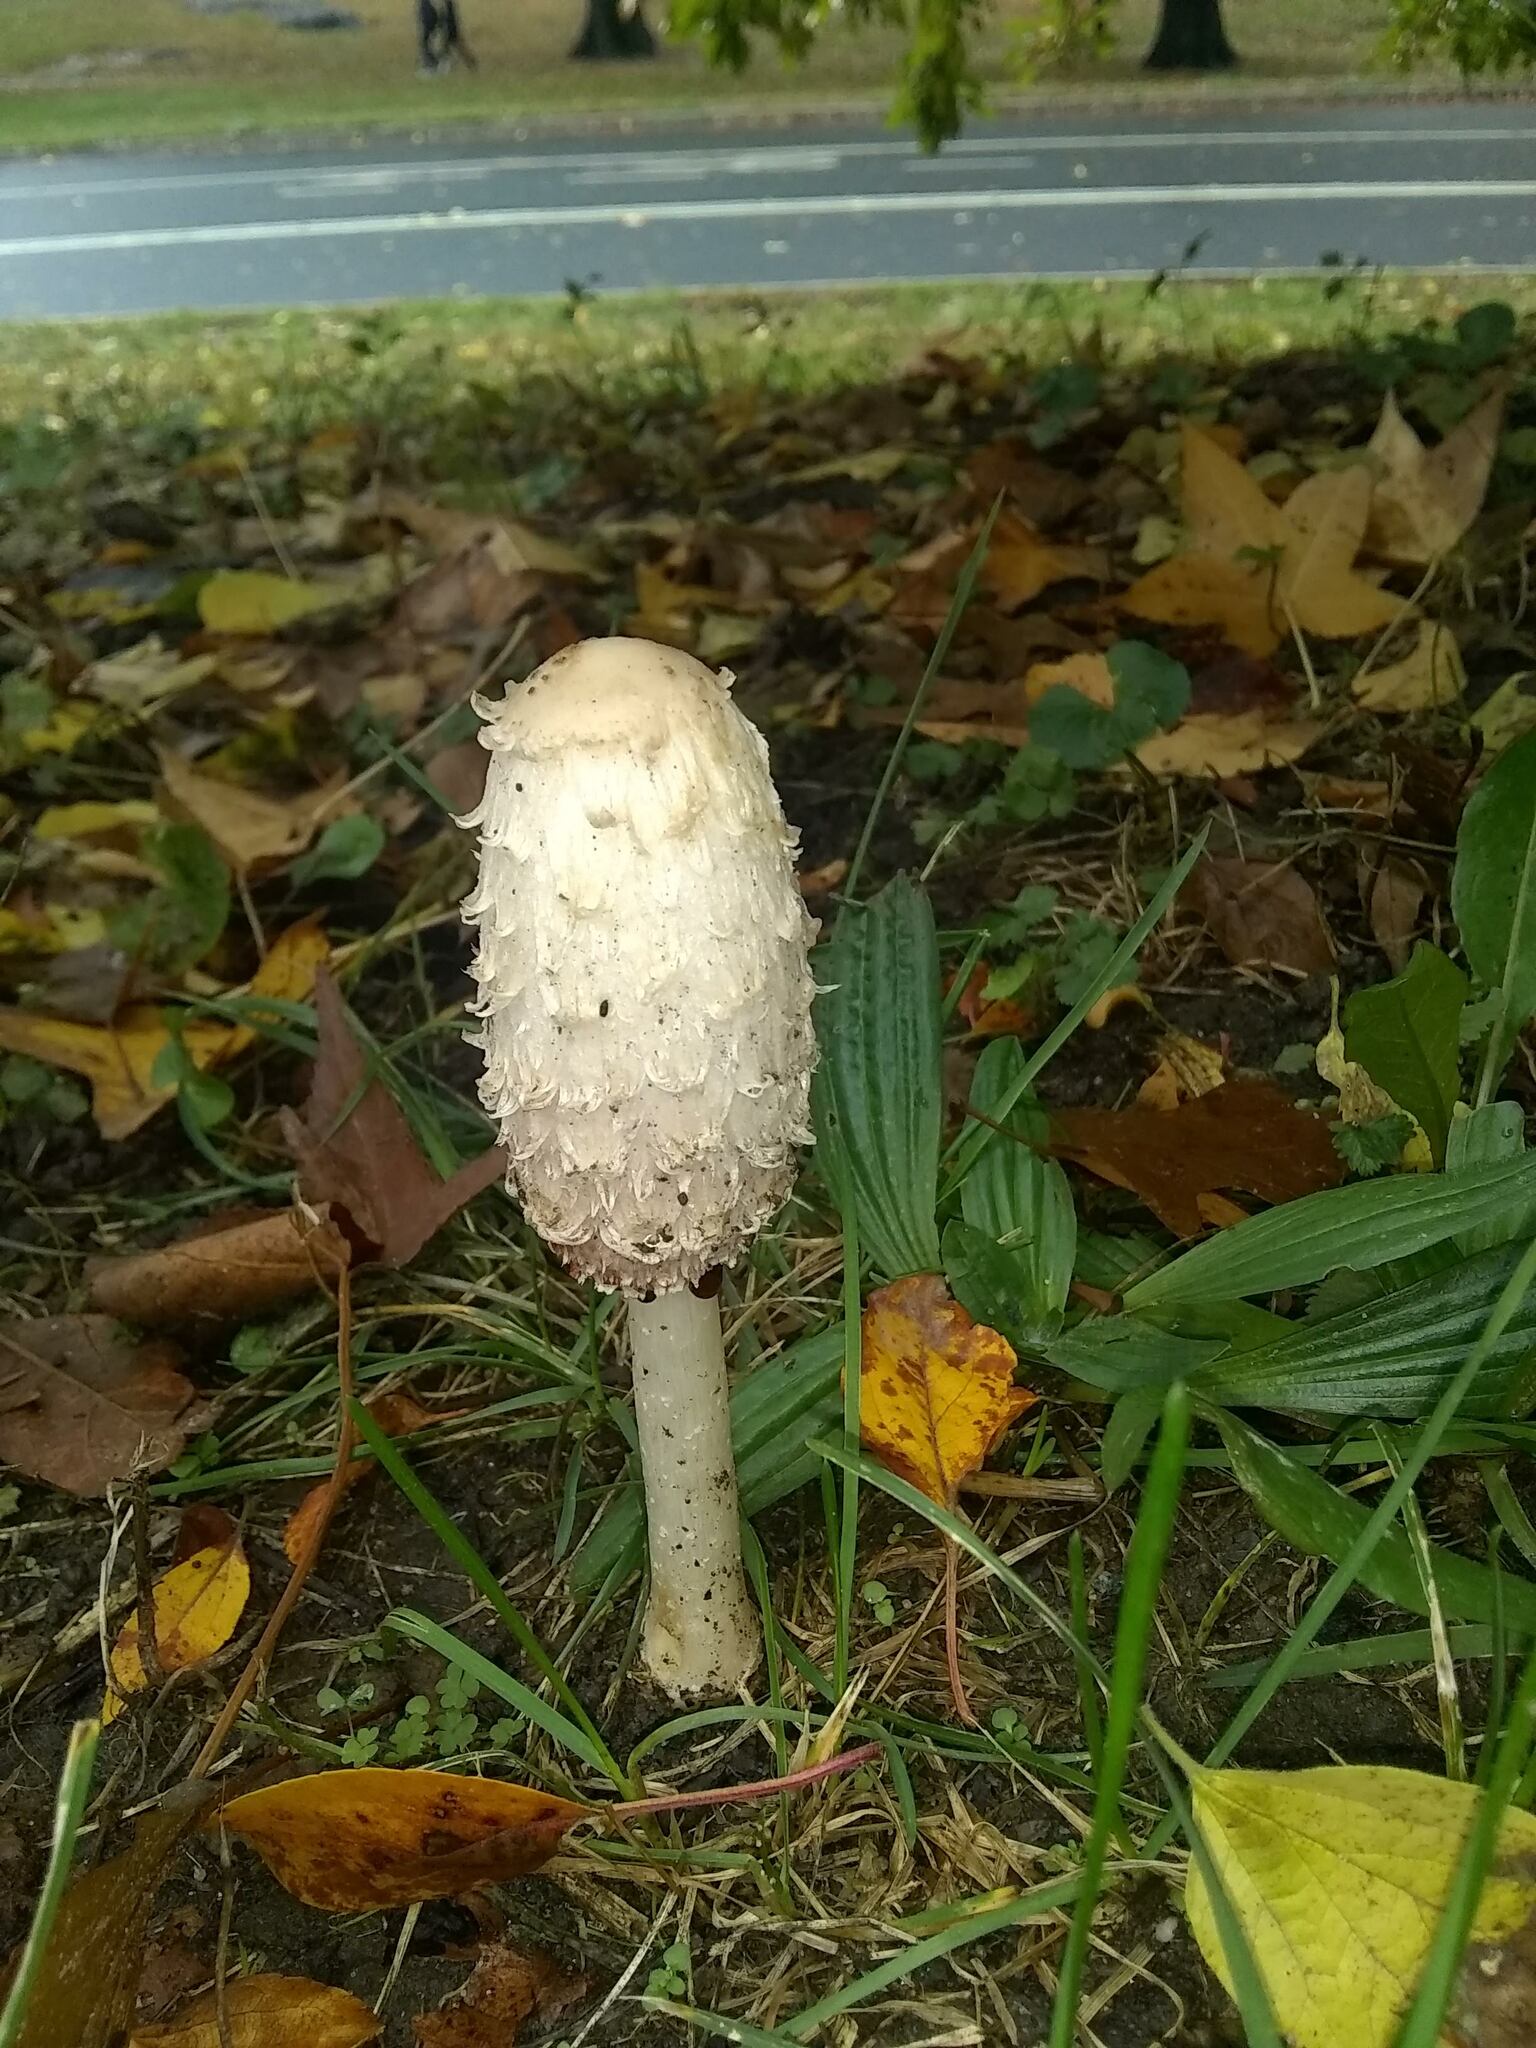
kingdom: Fungi
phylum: Basidiomycota
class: Agaricomycetes
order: Agaricales
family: Agaricaceae
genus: Coprinus
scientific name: Coprinus comatus
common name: Lawyer's wig
